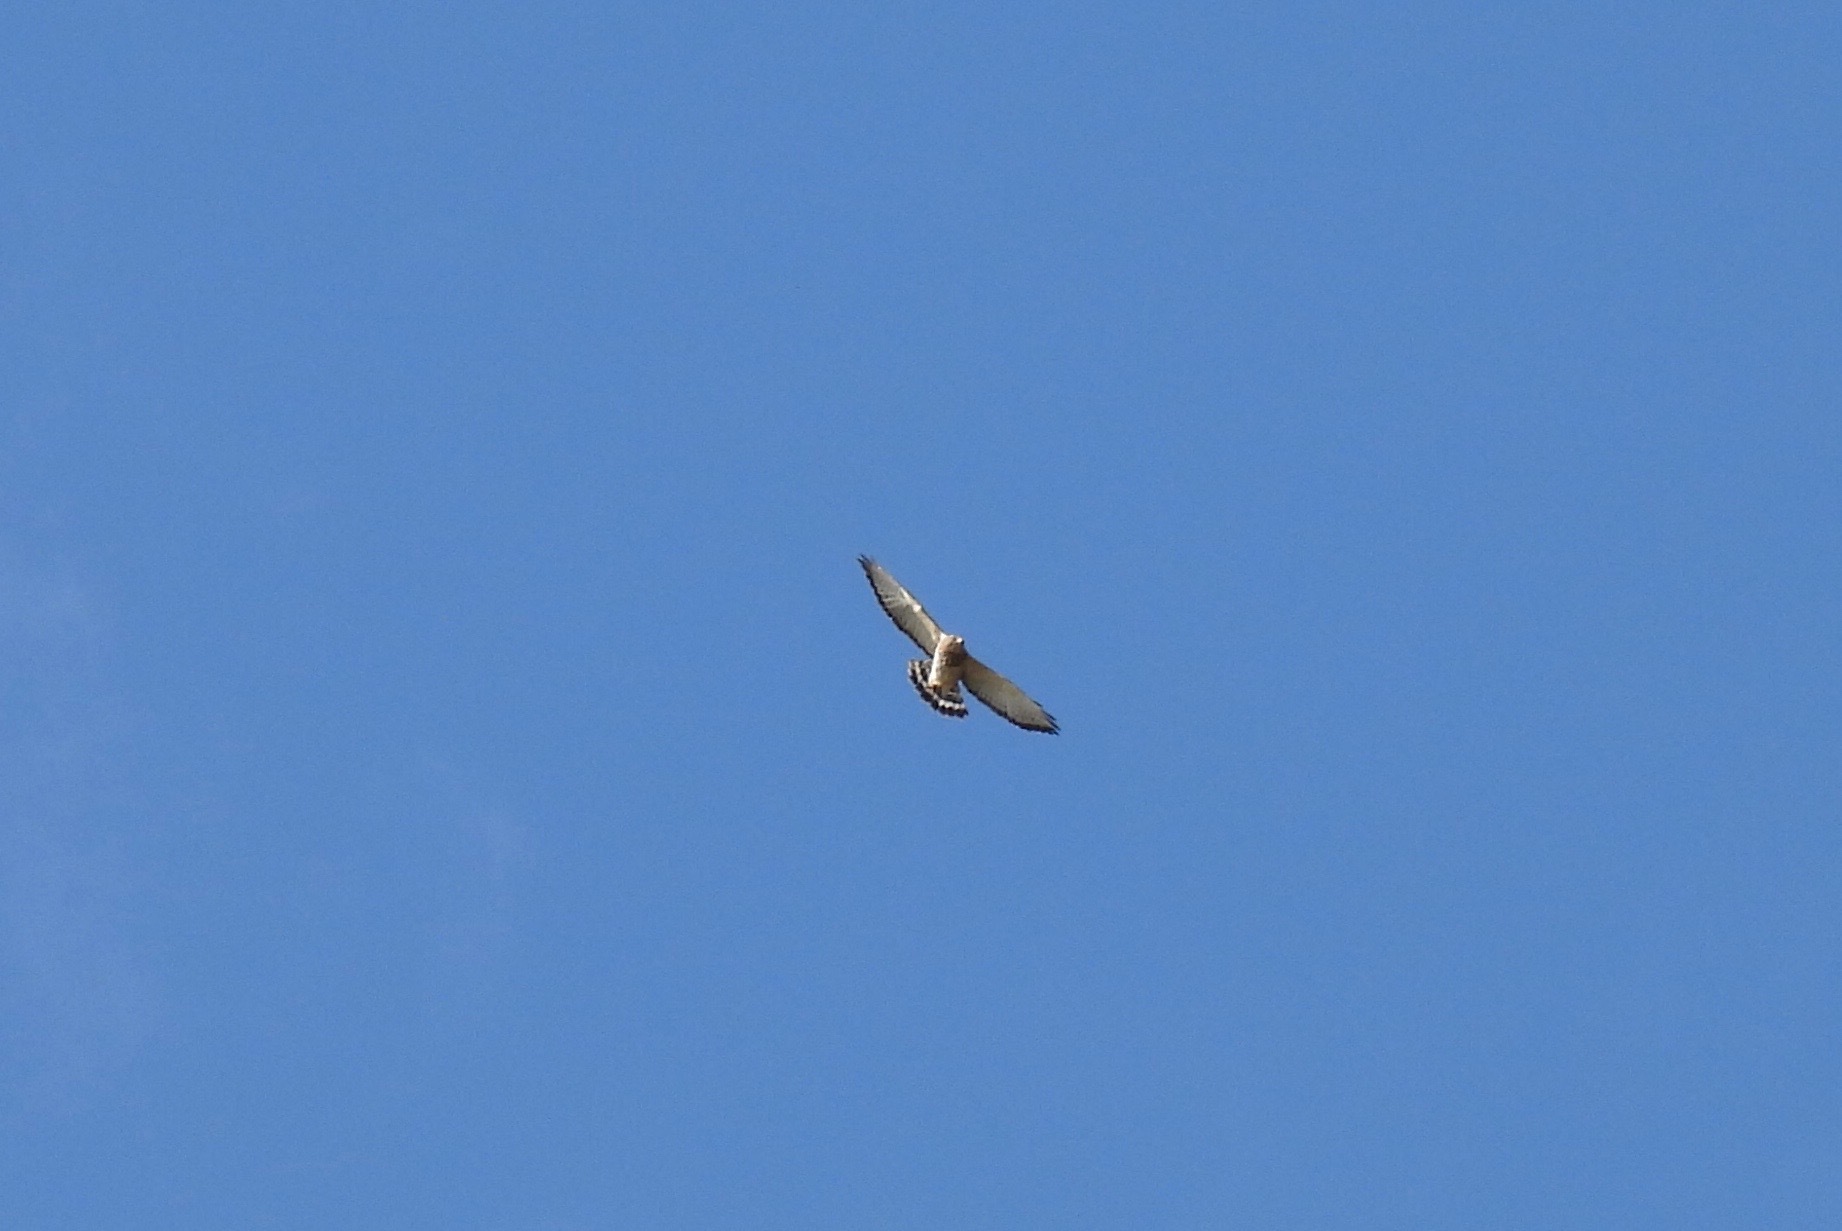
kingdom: Animalia
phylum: Chordata
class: Aves
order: Accipitriformes
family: Accipitridae
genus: Buteo
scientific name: Buteo platypterus
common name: Broad-winged hawk
